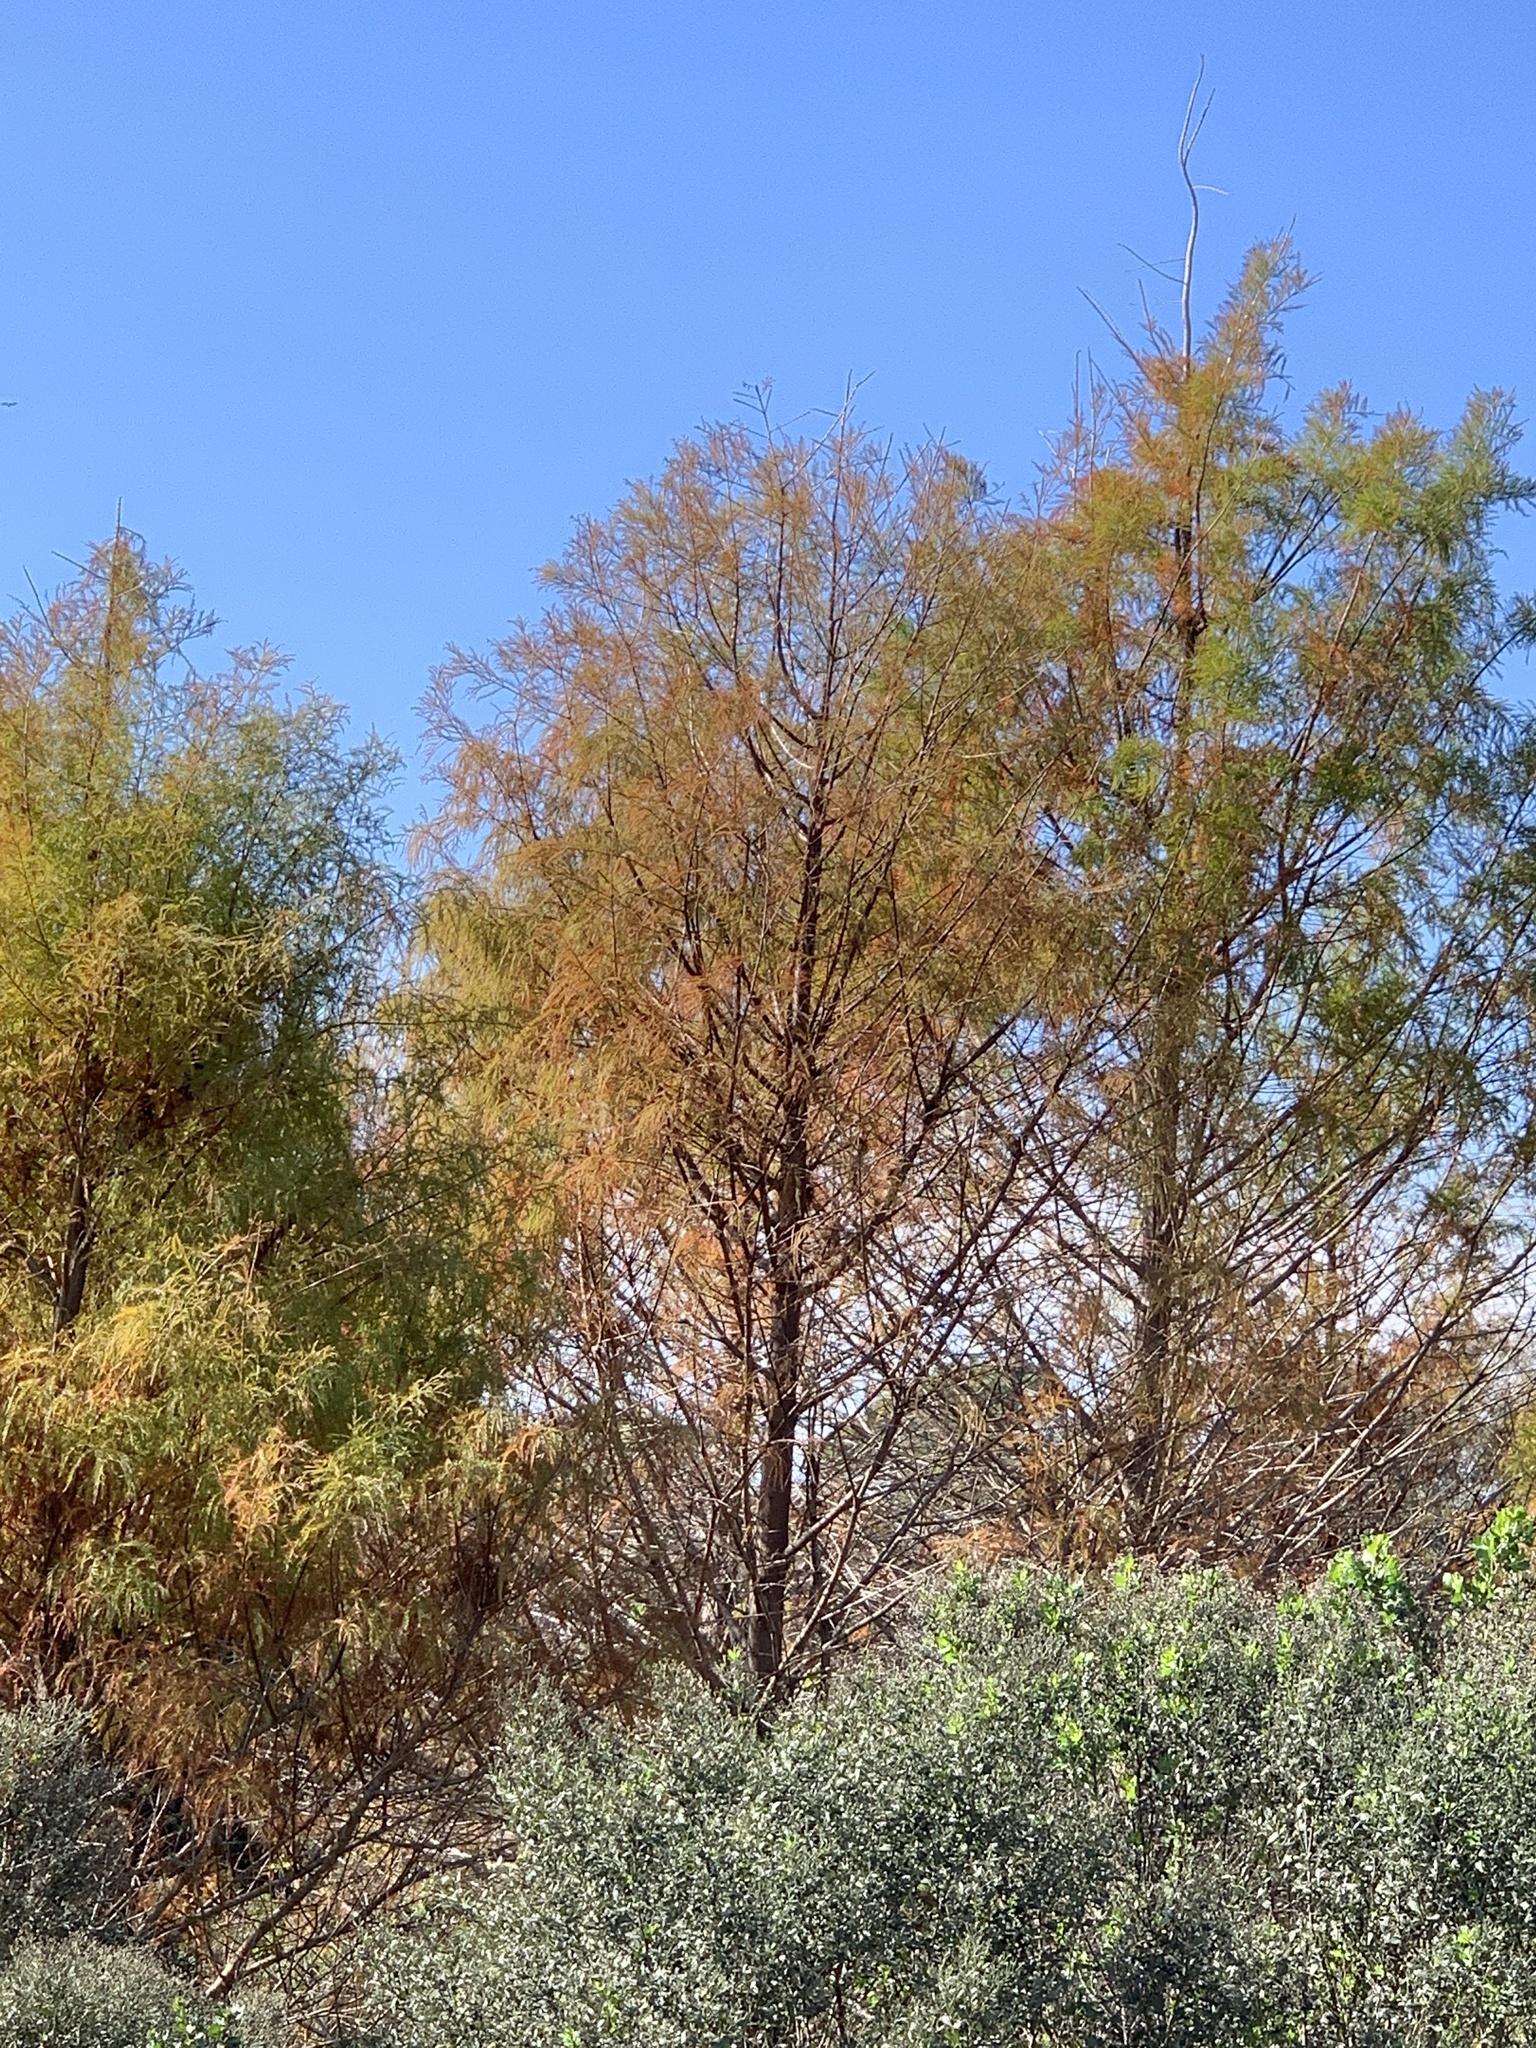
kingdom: Plantae
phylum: Tracheophyta
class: Pinopsida
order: Pinales
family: Cupressaceae
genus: Taxodium
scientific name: Taxodium distichum
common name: Bald cypress
